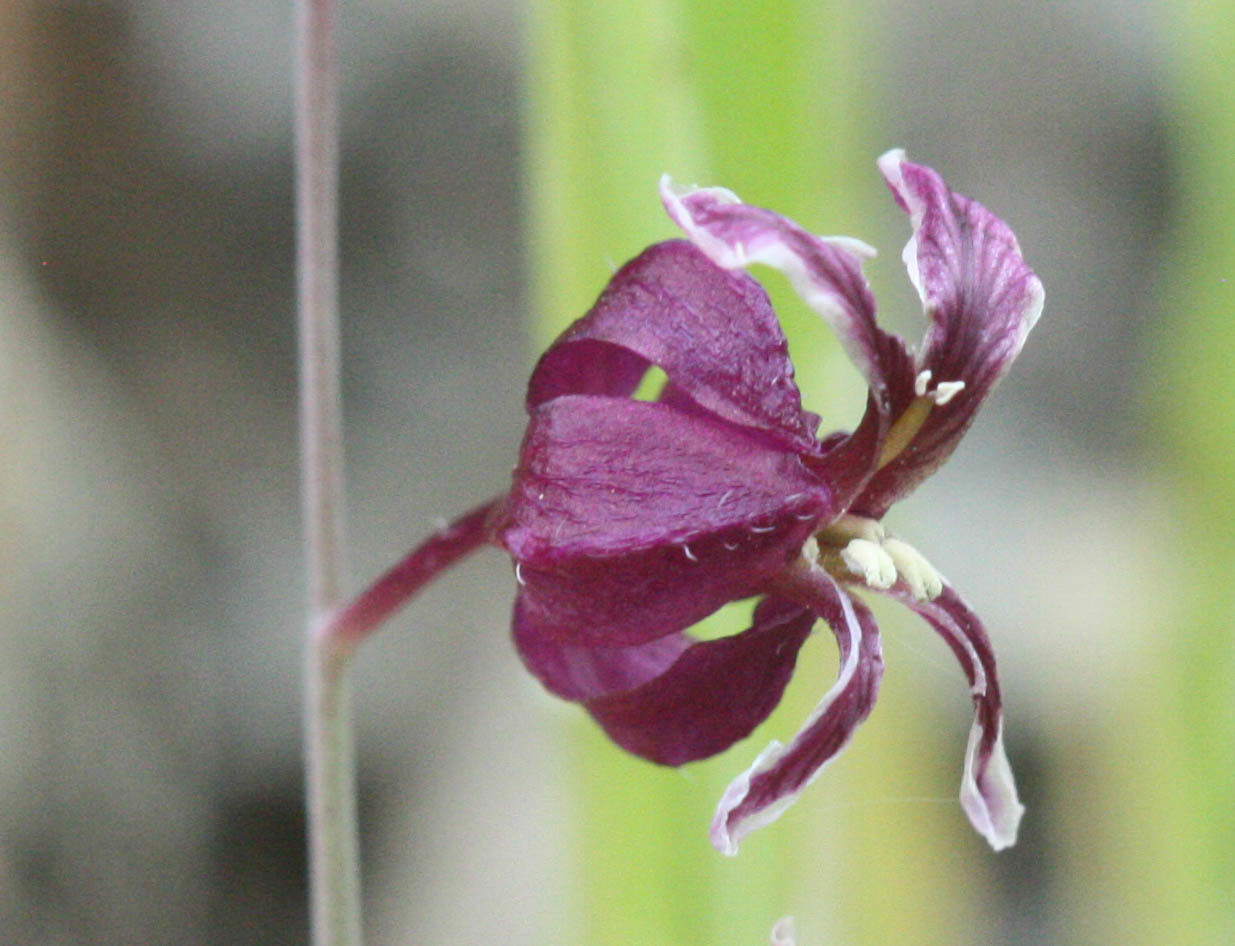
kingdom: Plantae
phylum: Tracheophyta
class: Magnoliopsida
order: Brassicales
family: Brassicaceae
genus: Streptanthus
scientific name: Streptanthus glandulosus
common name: Jewel-flower
